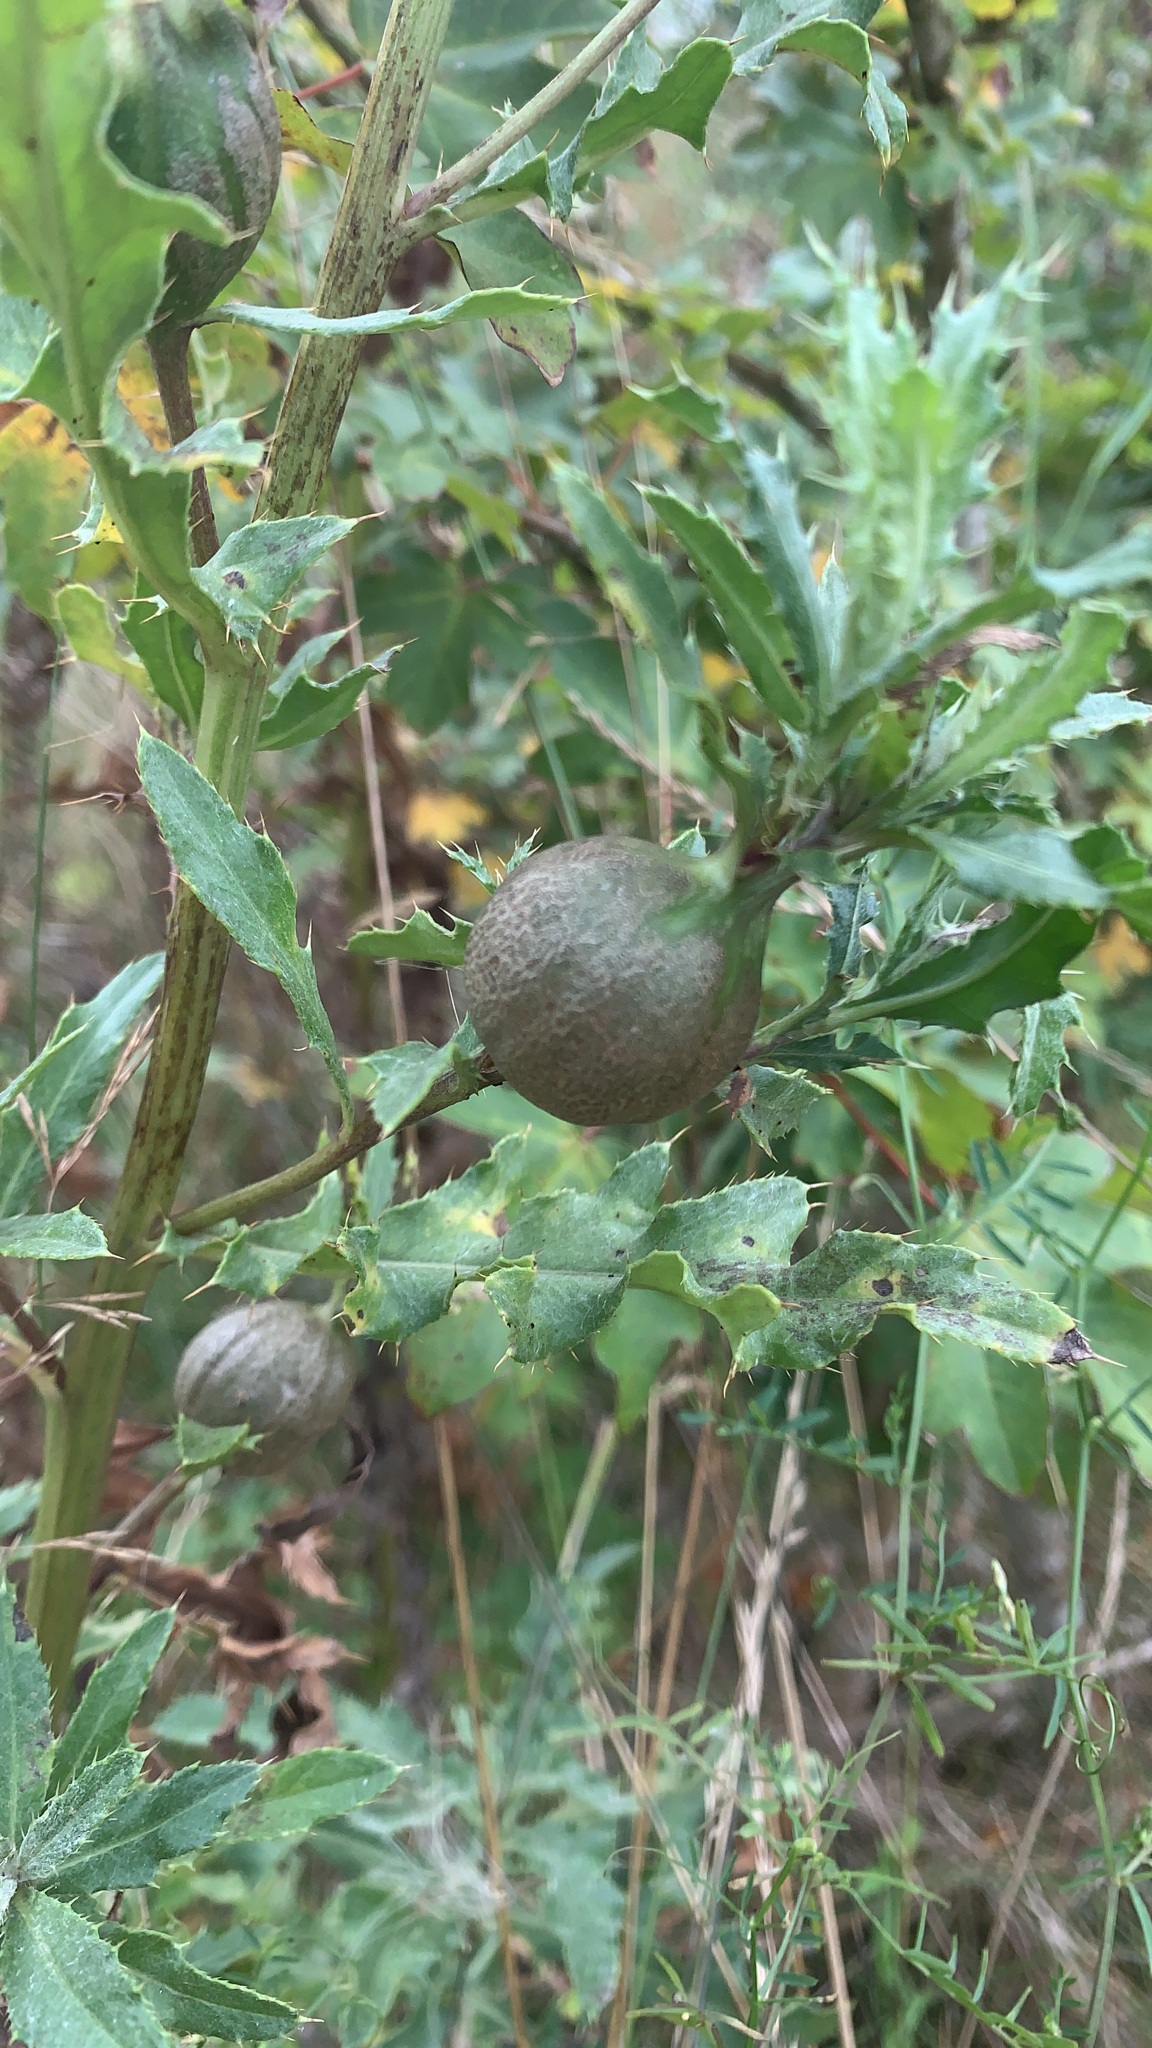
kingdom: Animalia
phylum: Arthropoda
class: Insecta
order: Diptera
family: Tephritidae
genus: Urophora
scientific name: Urophora cardui
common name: Fruit fly
